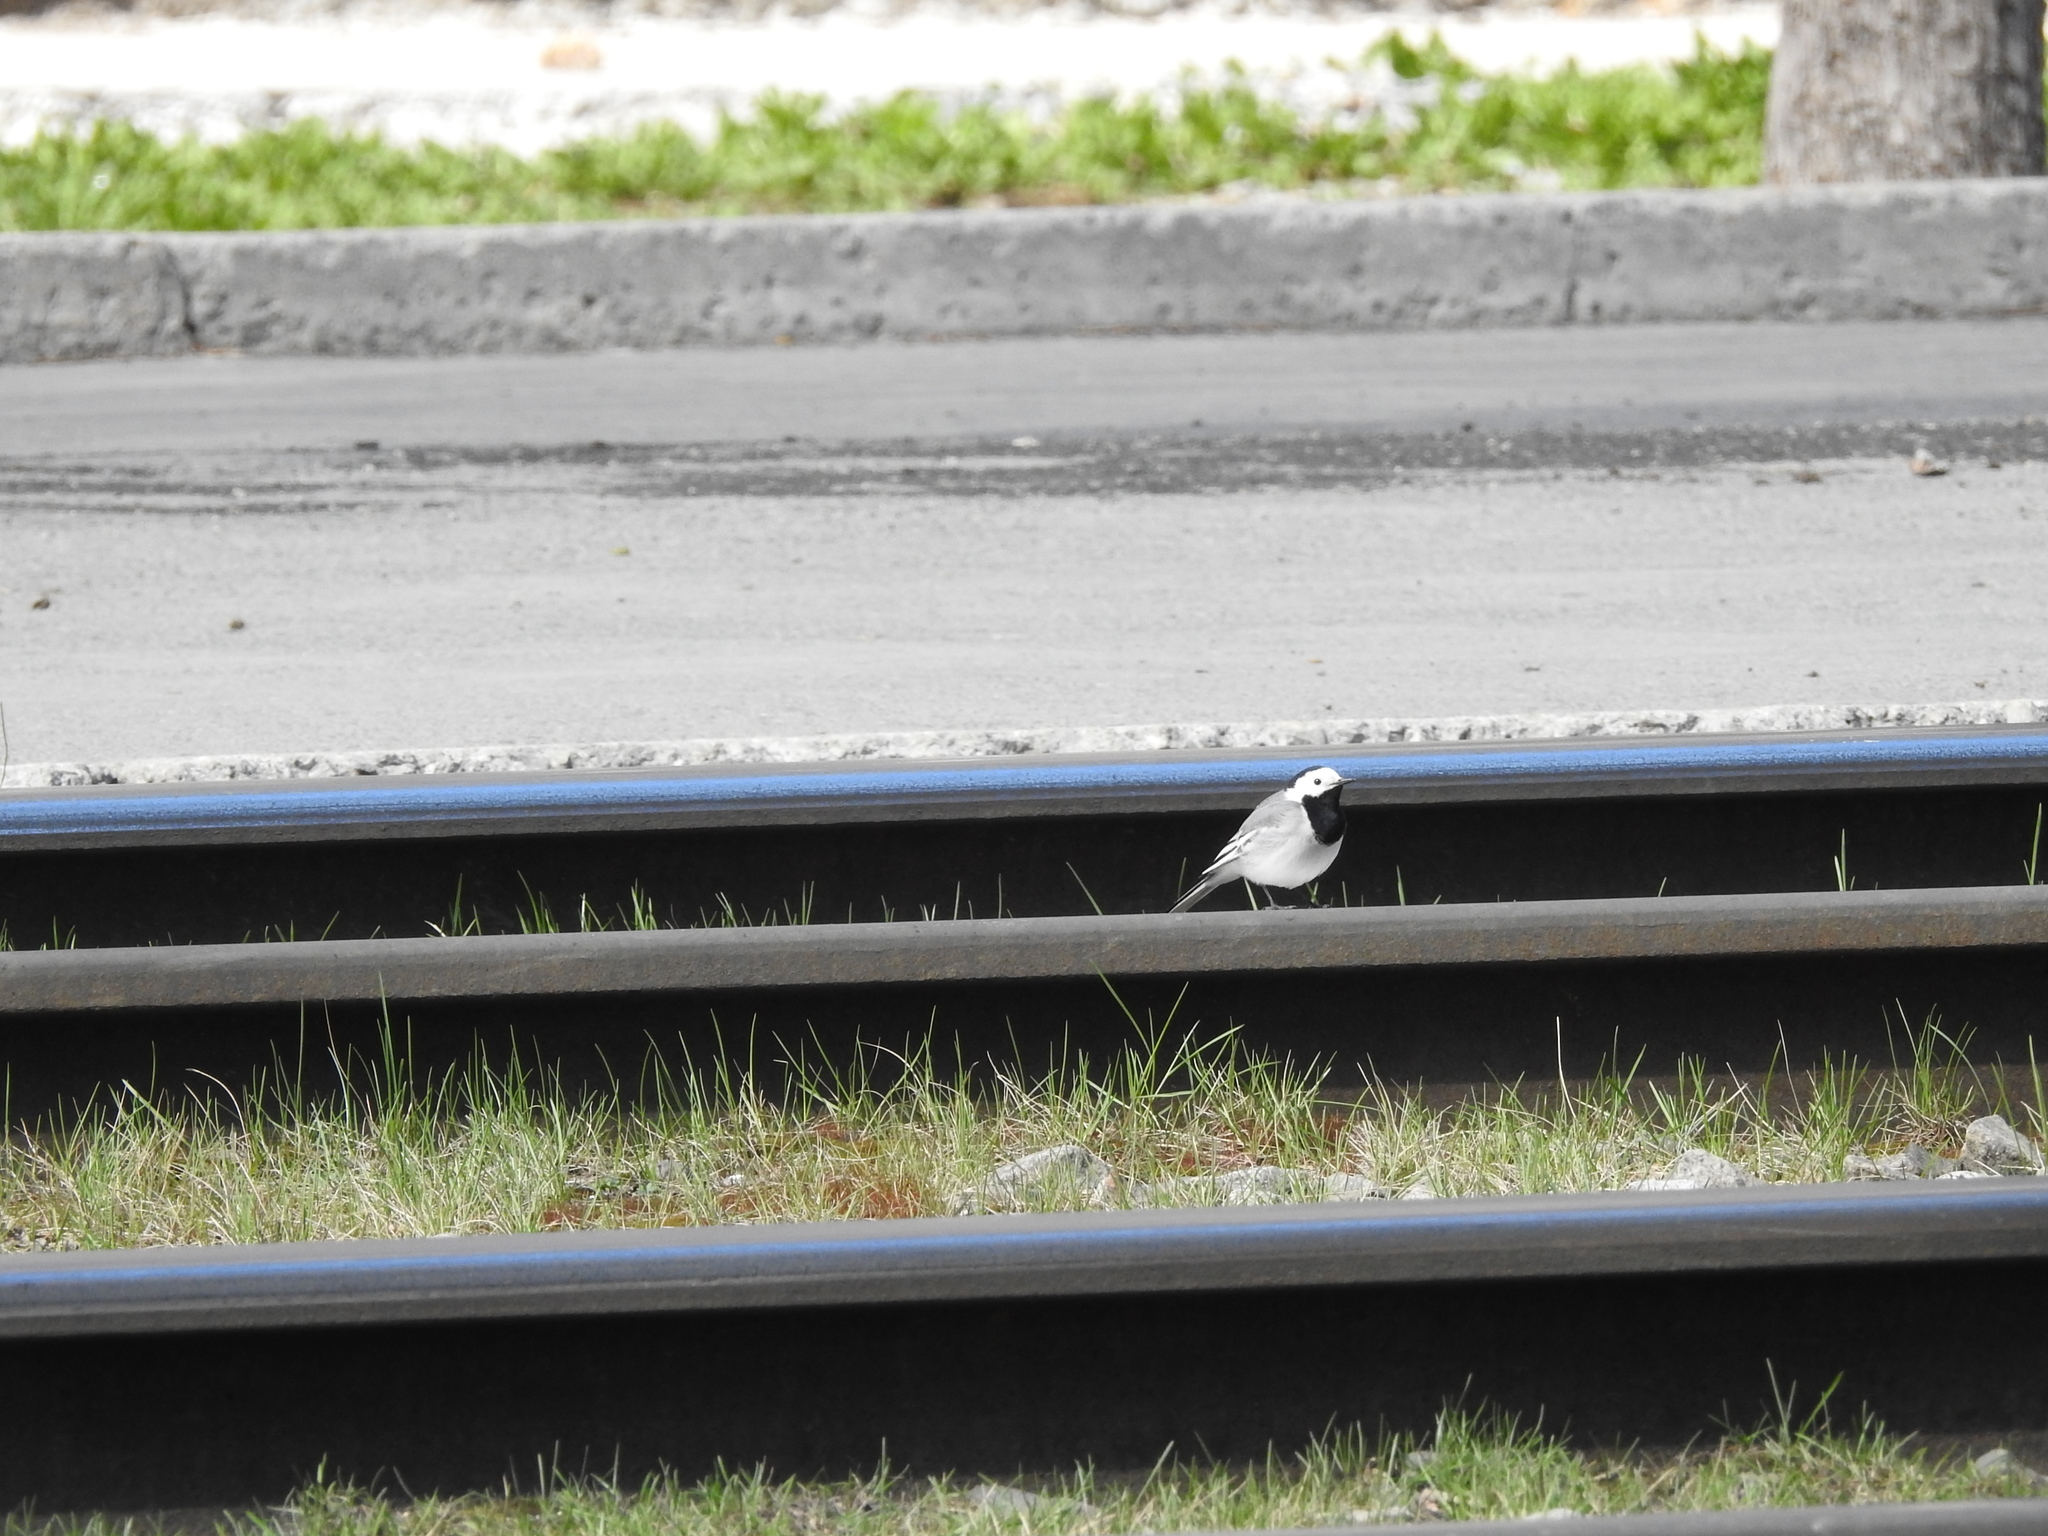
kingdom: Animalia
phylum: Chordata
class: Aves
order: Passeriformes
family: Motacillidae
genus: Motacilla
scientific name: Motacilla alba
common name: White wagtail
